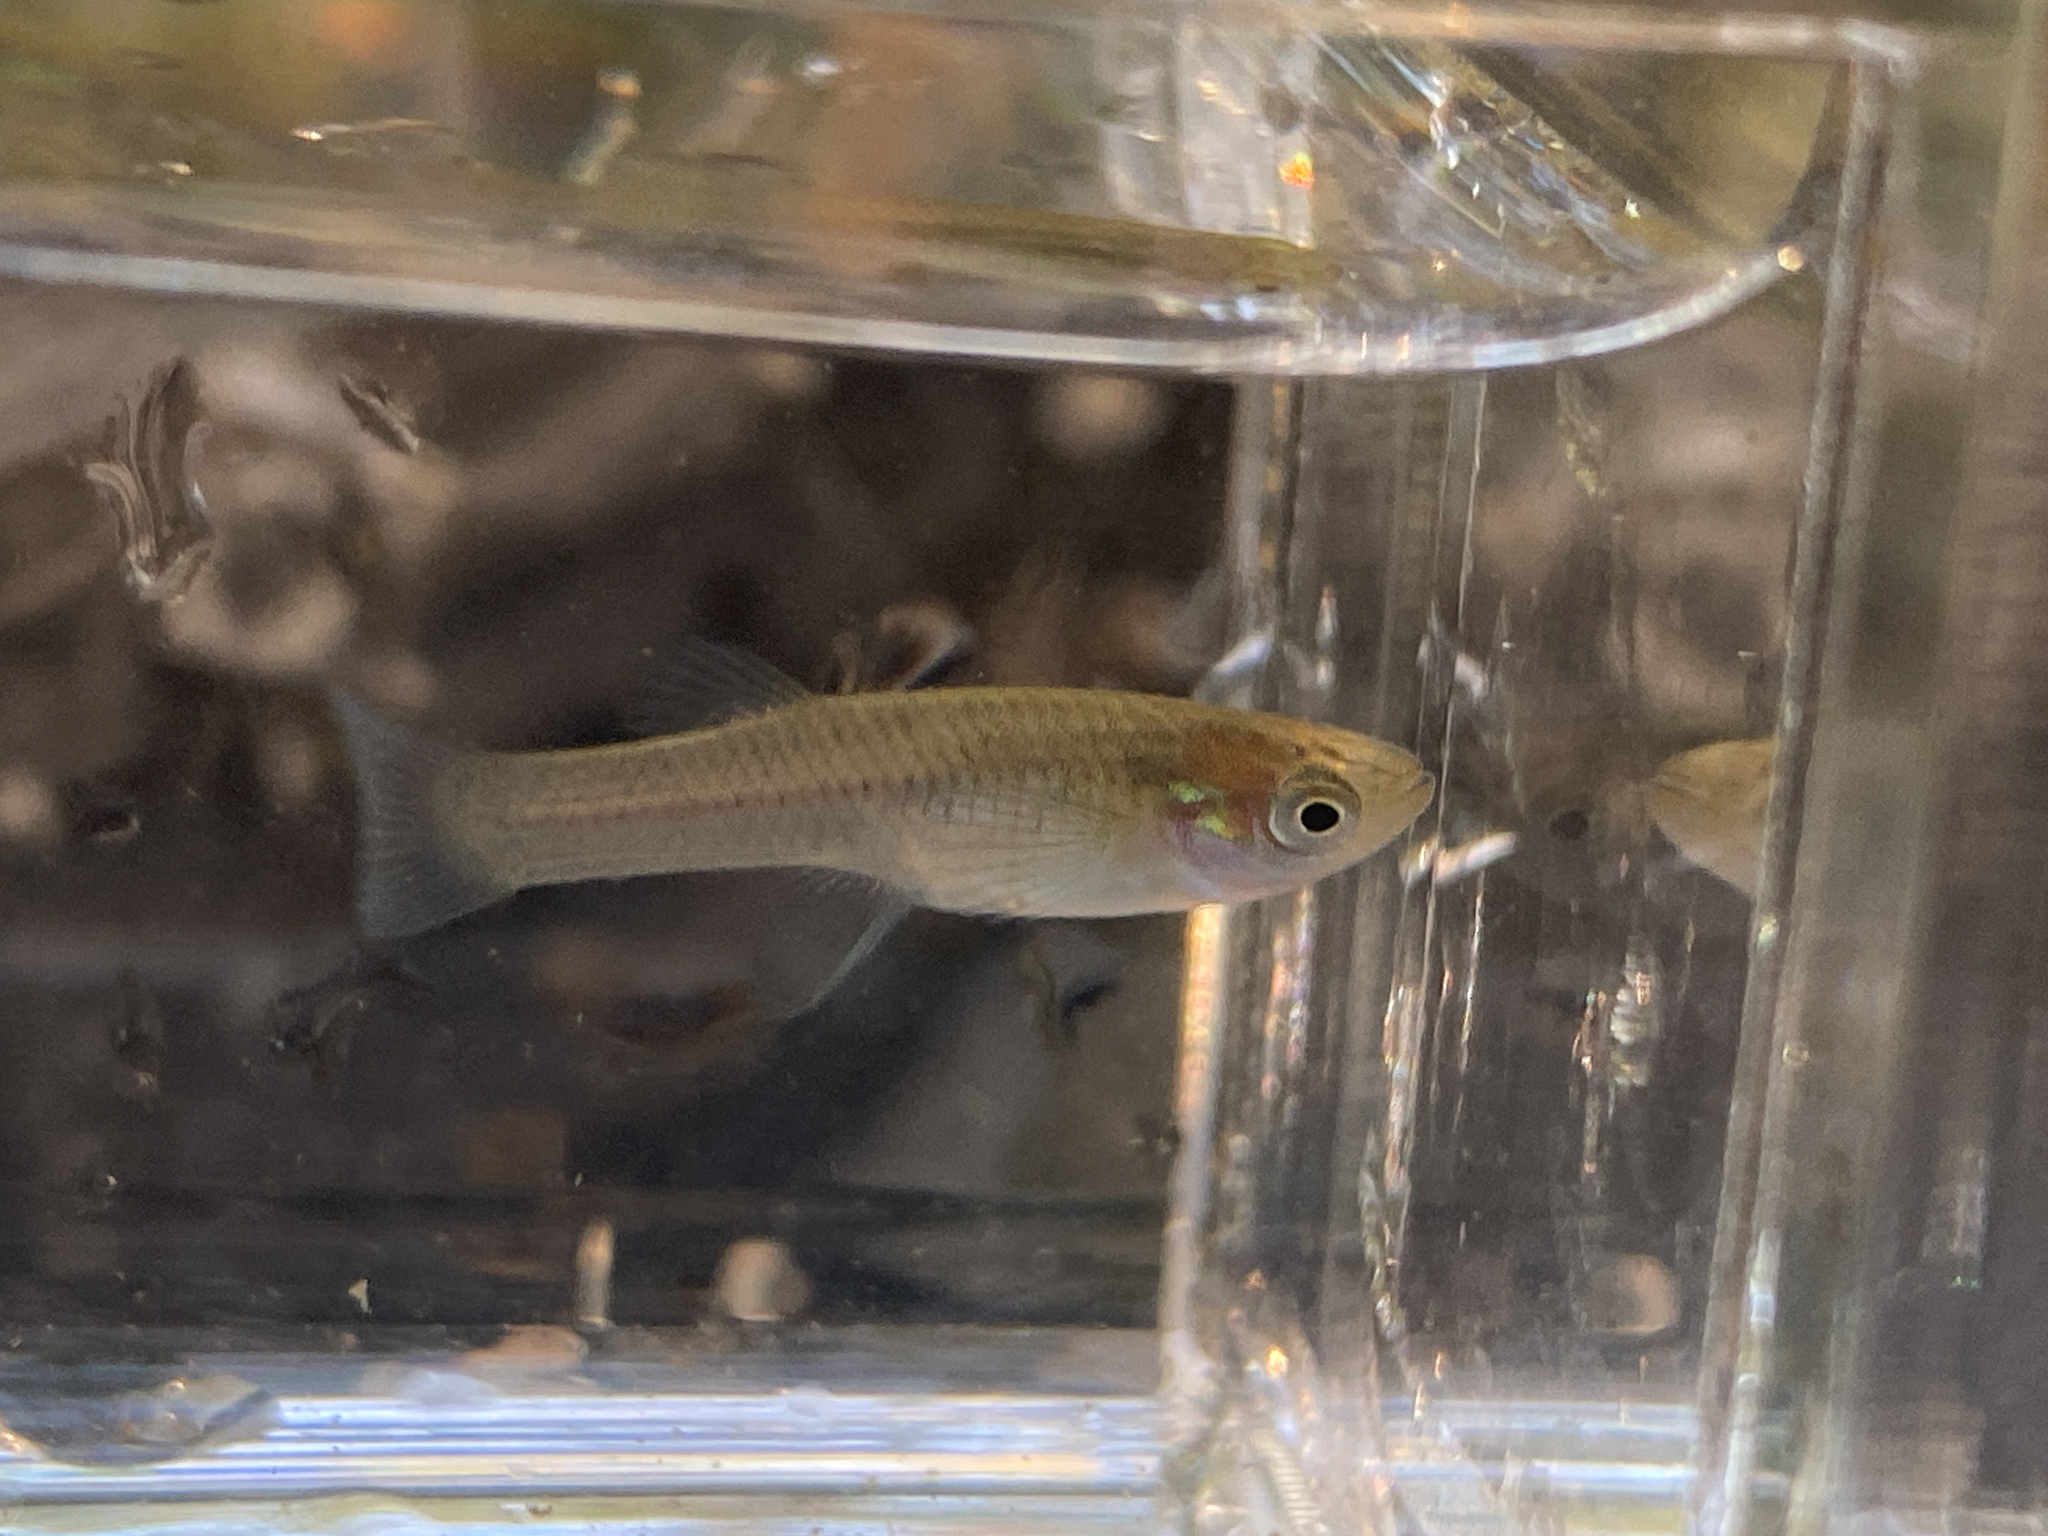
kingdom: Animalia
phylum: Chordata
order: Cyprinodontiformes
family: Poeciliidae
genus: Gambusia
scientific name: Gambusia holbrooki
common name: Eastern mosquitofish
